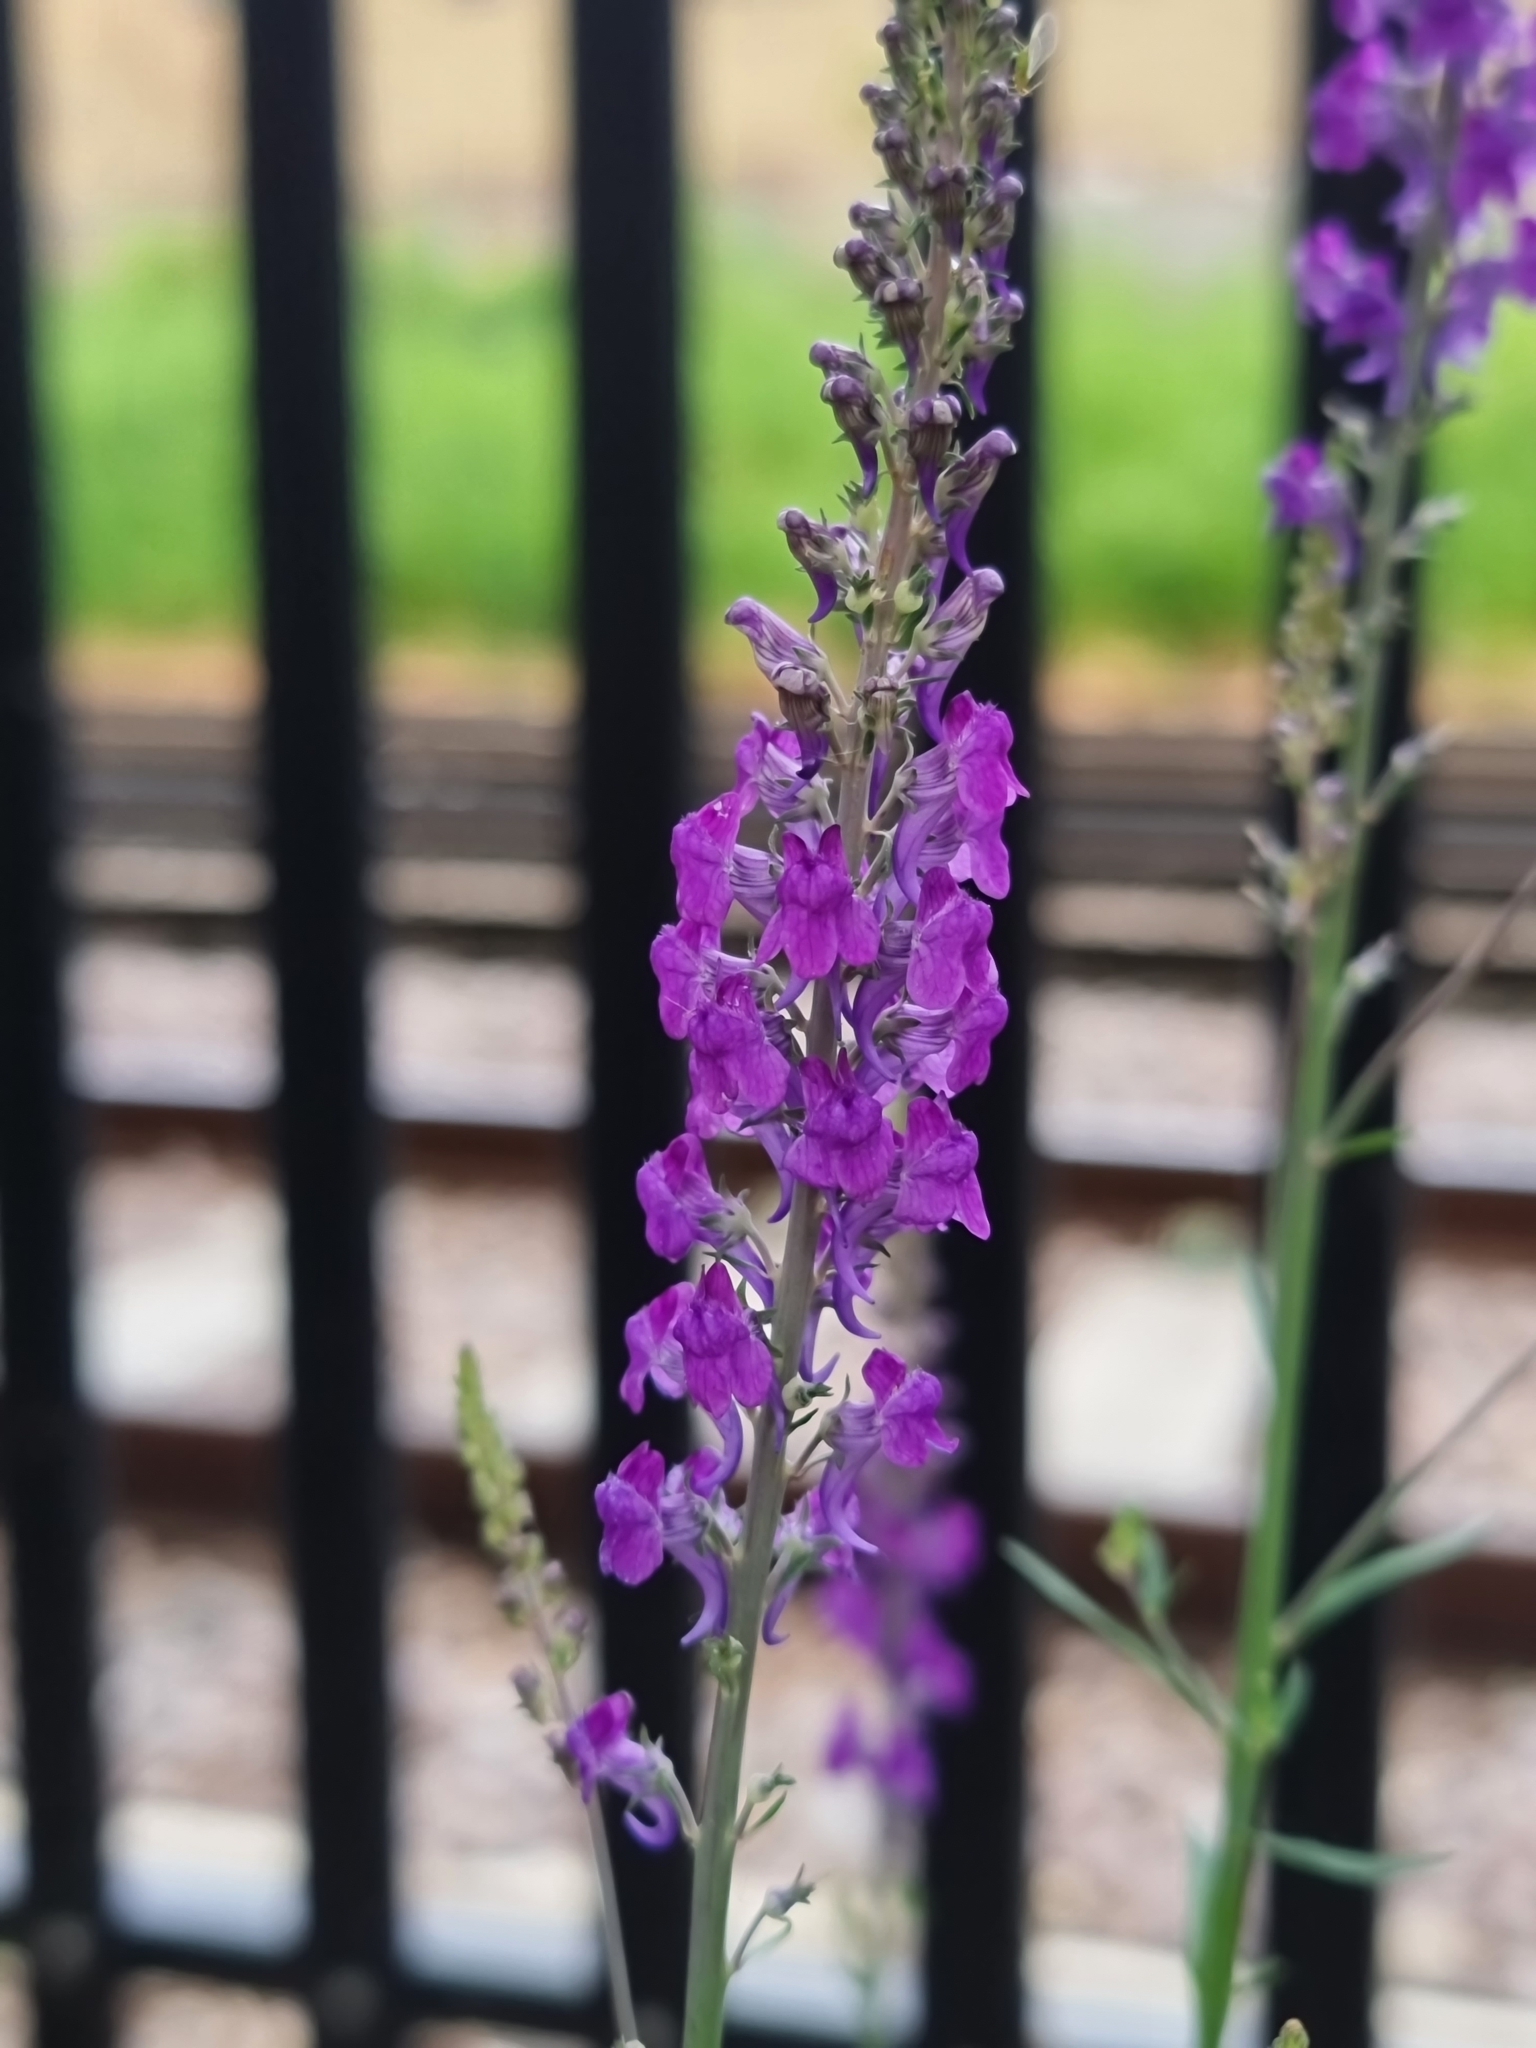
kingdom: Plantae
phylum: Tracheophyta
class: Magnoliopsida
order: Lamiales
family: Plantaginaceae
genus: Linaria
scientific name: Linaria purpurea
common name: Purple toadflax
